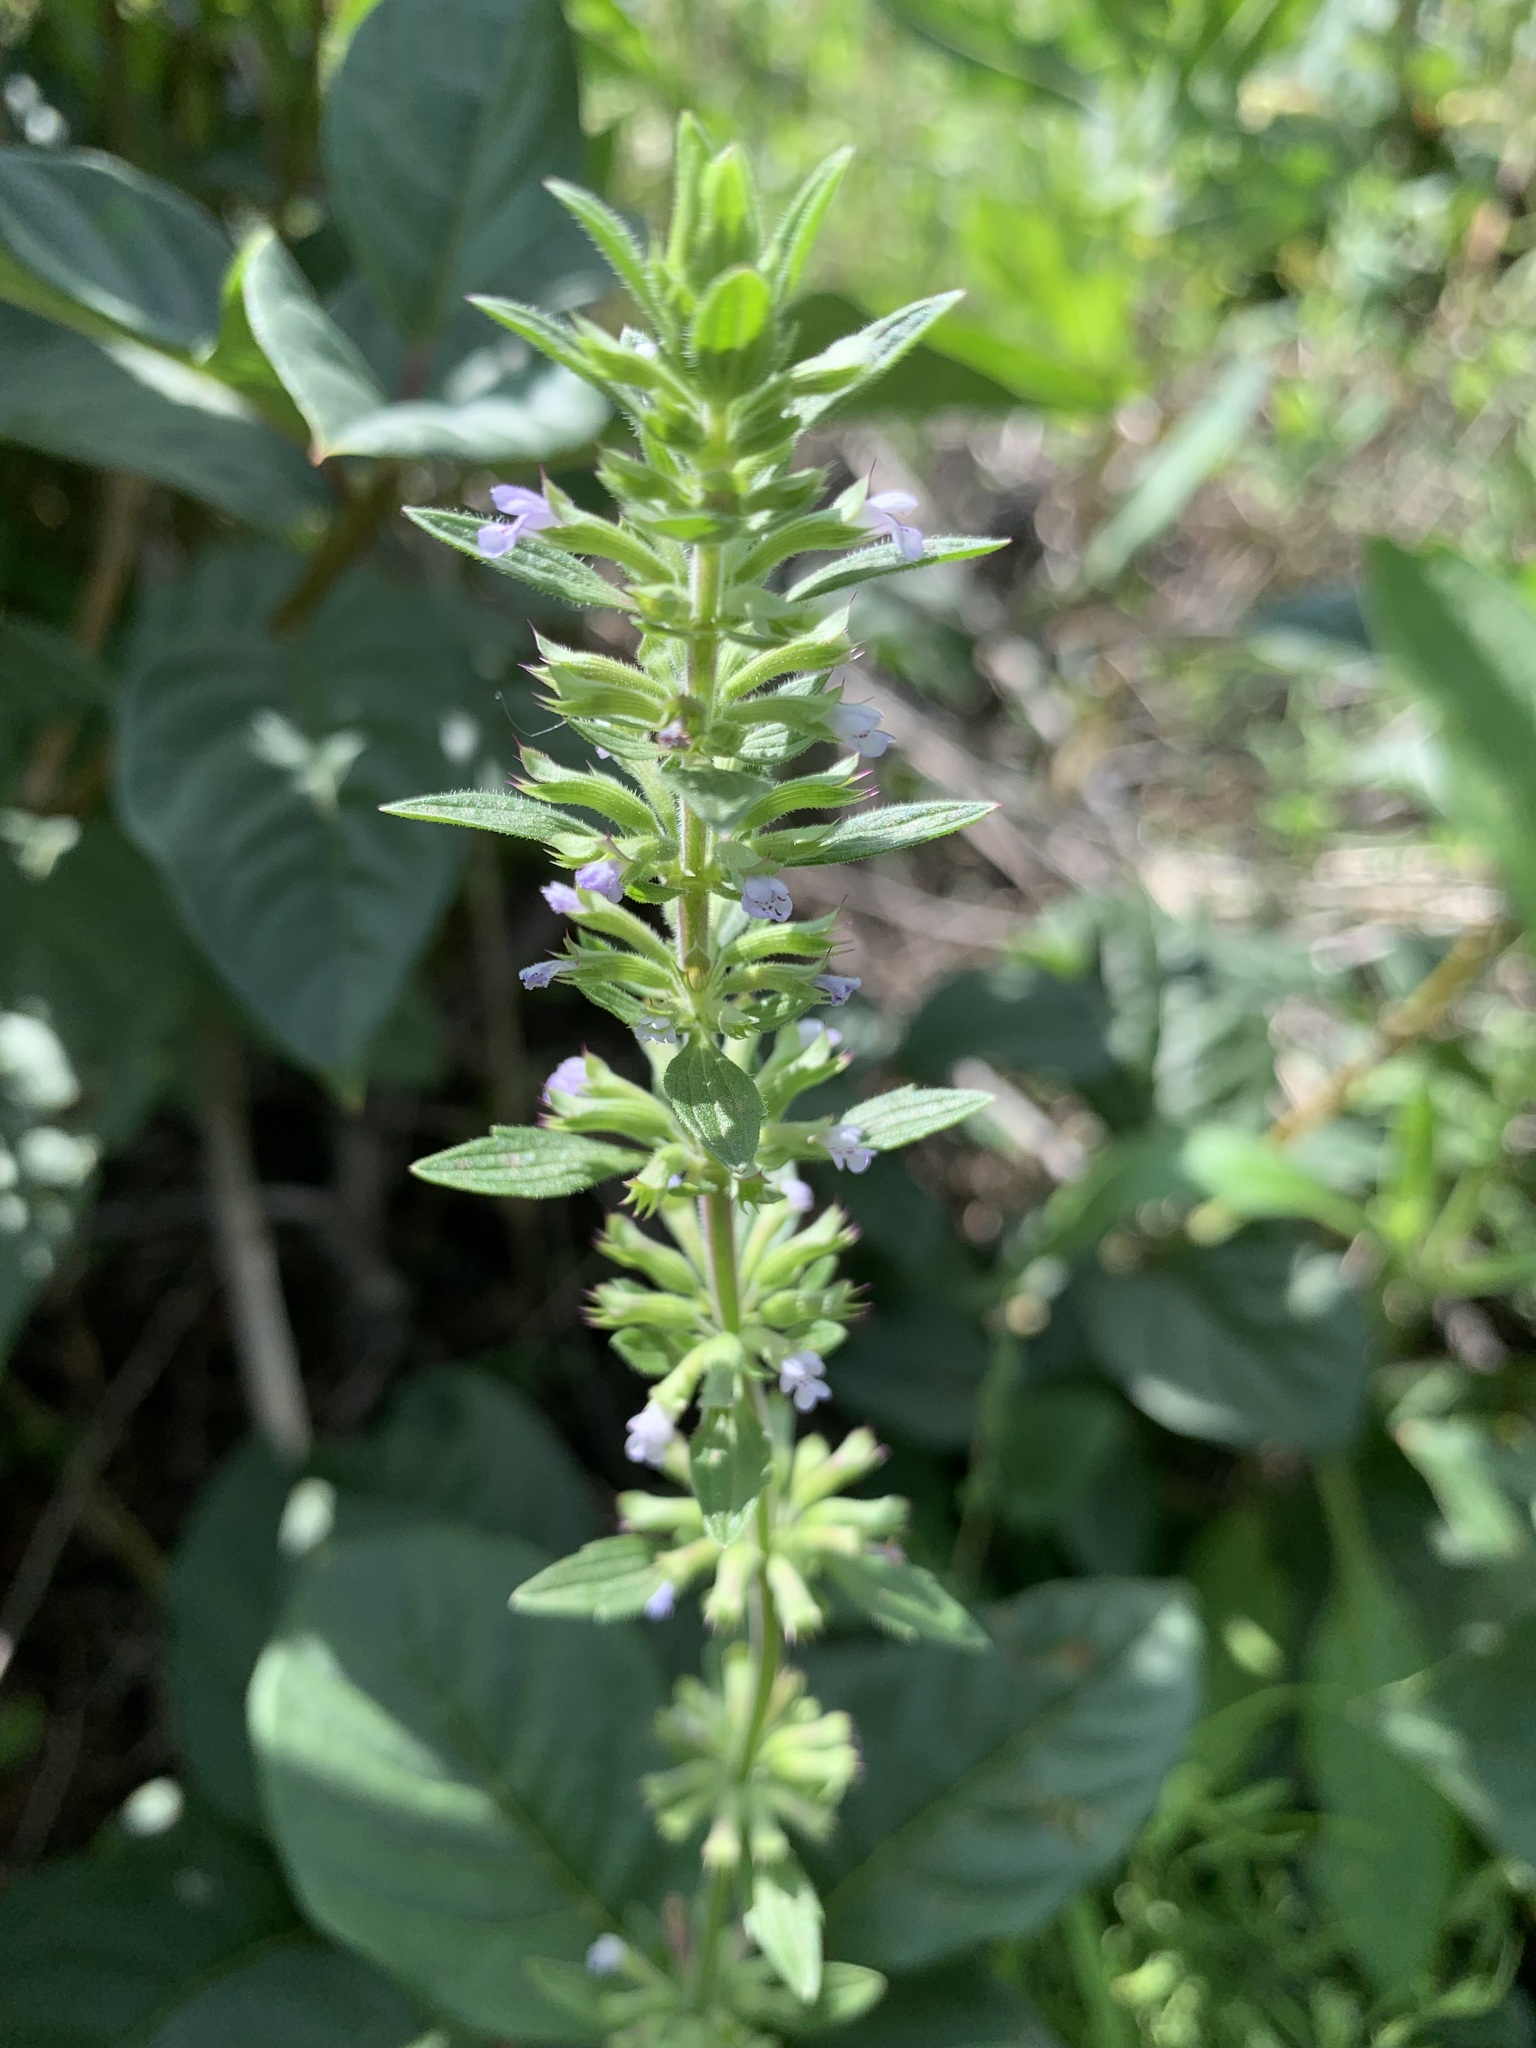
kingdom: Plantae
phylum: Tracheophyta
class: Magnoliopsida
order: Lamiales
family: Lamiaceae
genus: Dracocephalum
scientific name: Dracocephalum thymiflorum
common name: Thymeleaf dragonhead
